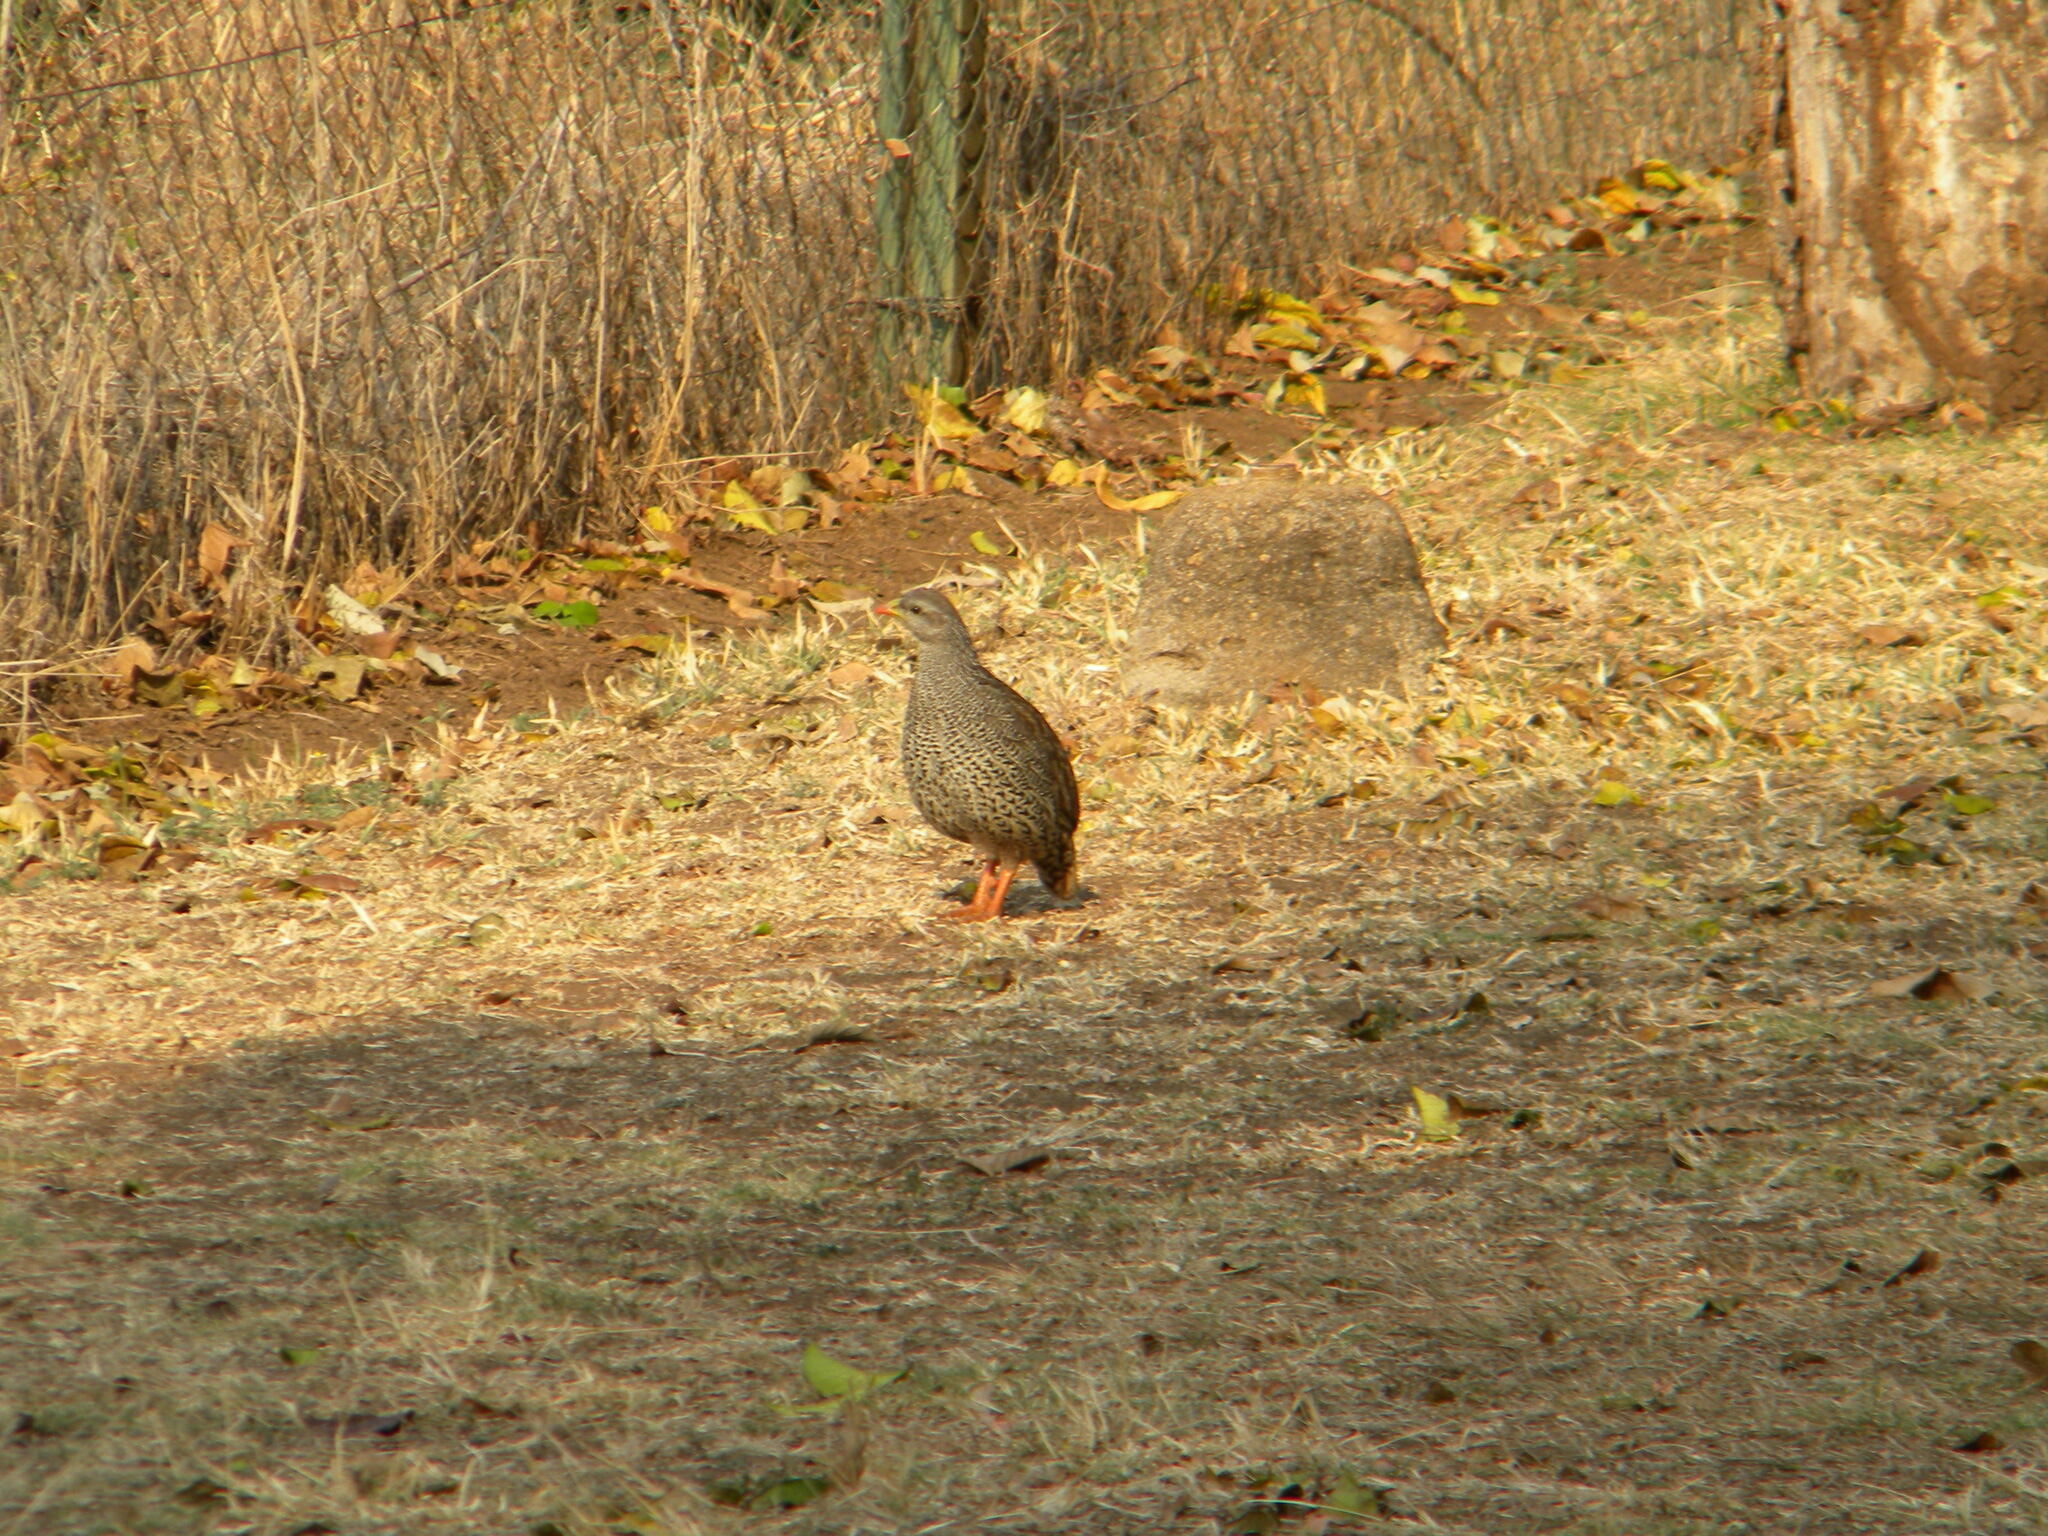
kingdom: Animalia
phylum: Chordata
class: Aves
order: Galliformes
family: Phasianidae
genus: Pternistis
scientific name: Pternistis natalensis
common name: Natal spurfowl
